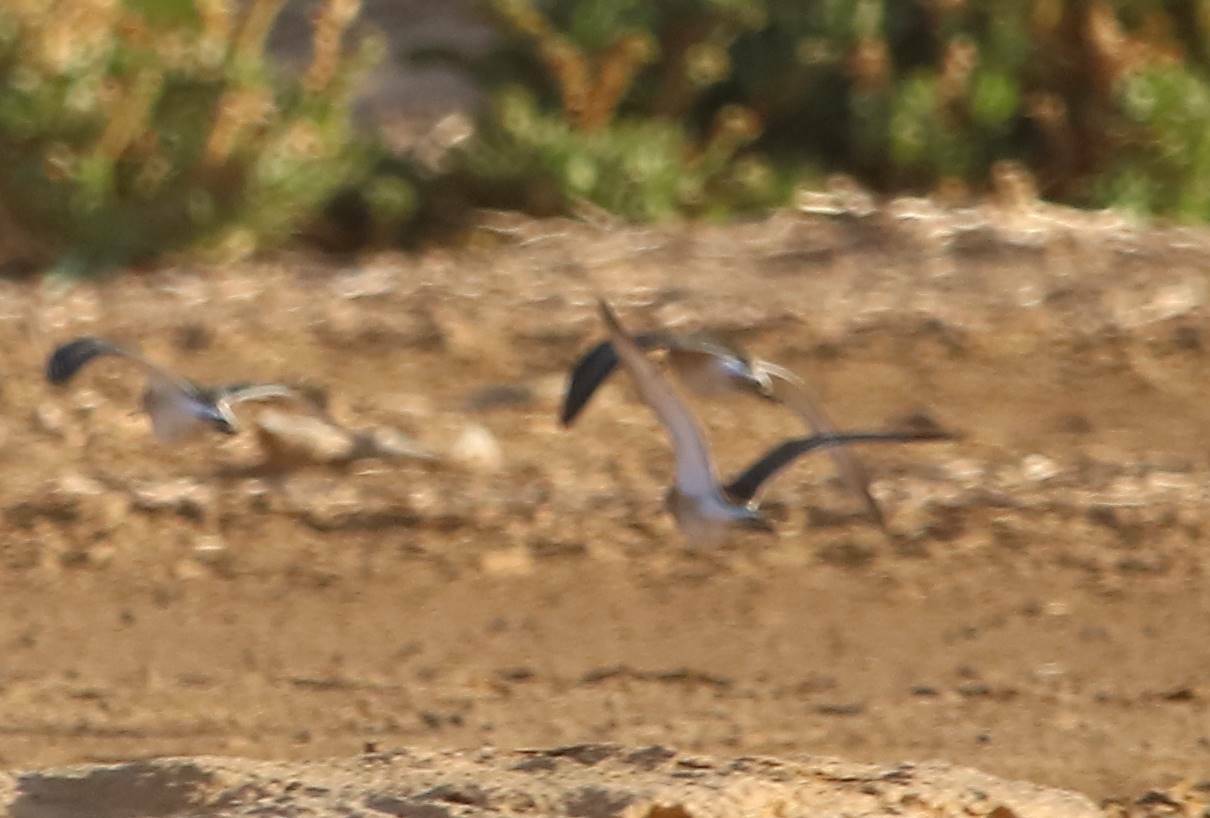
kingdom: Animalia
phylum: Chordata
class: Aves
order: Charadriiformes
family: Scolopacidae
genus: Calidris
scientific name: Calidris minuta
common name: Little stint
